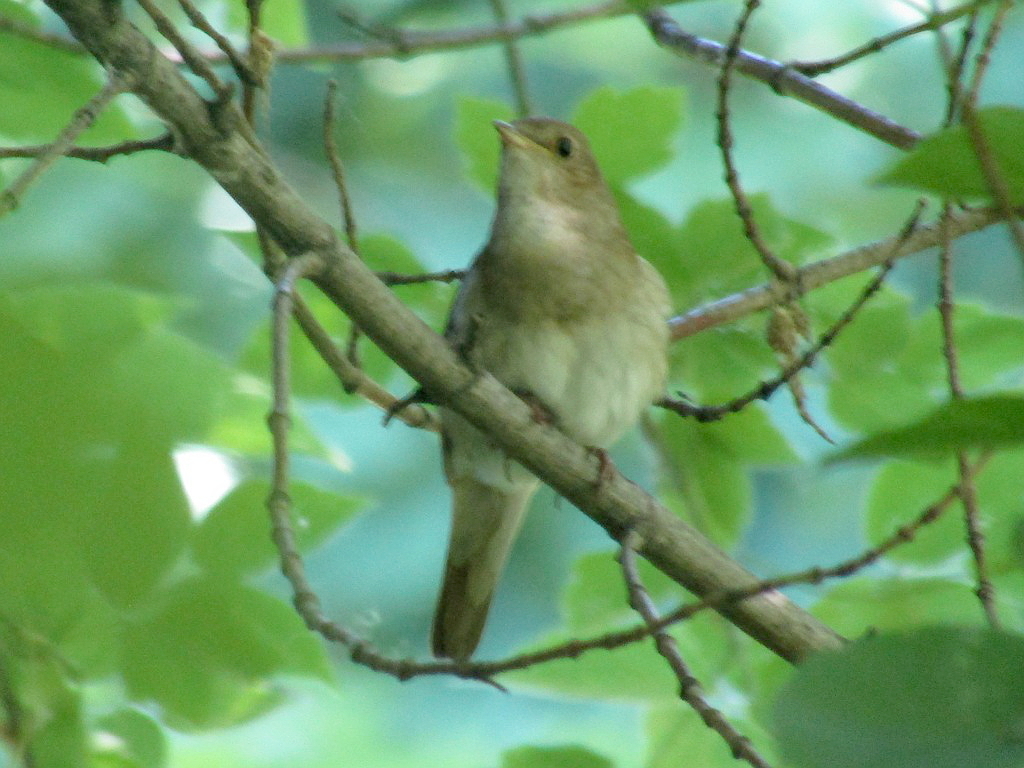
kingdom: Animalia
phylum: Chordata
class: Aves
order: Passeriformes
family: Muscicapidae
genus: Luscinia
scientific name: Luscinia luscinia
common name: Thrush nightingale
